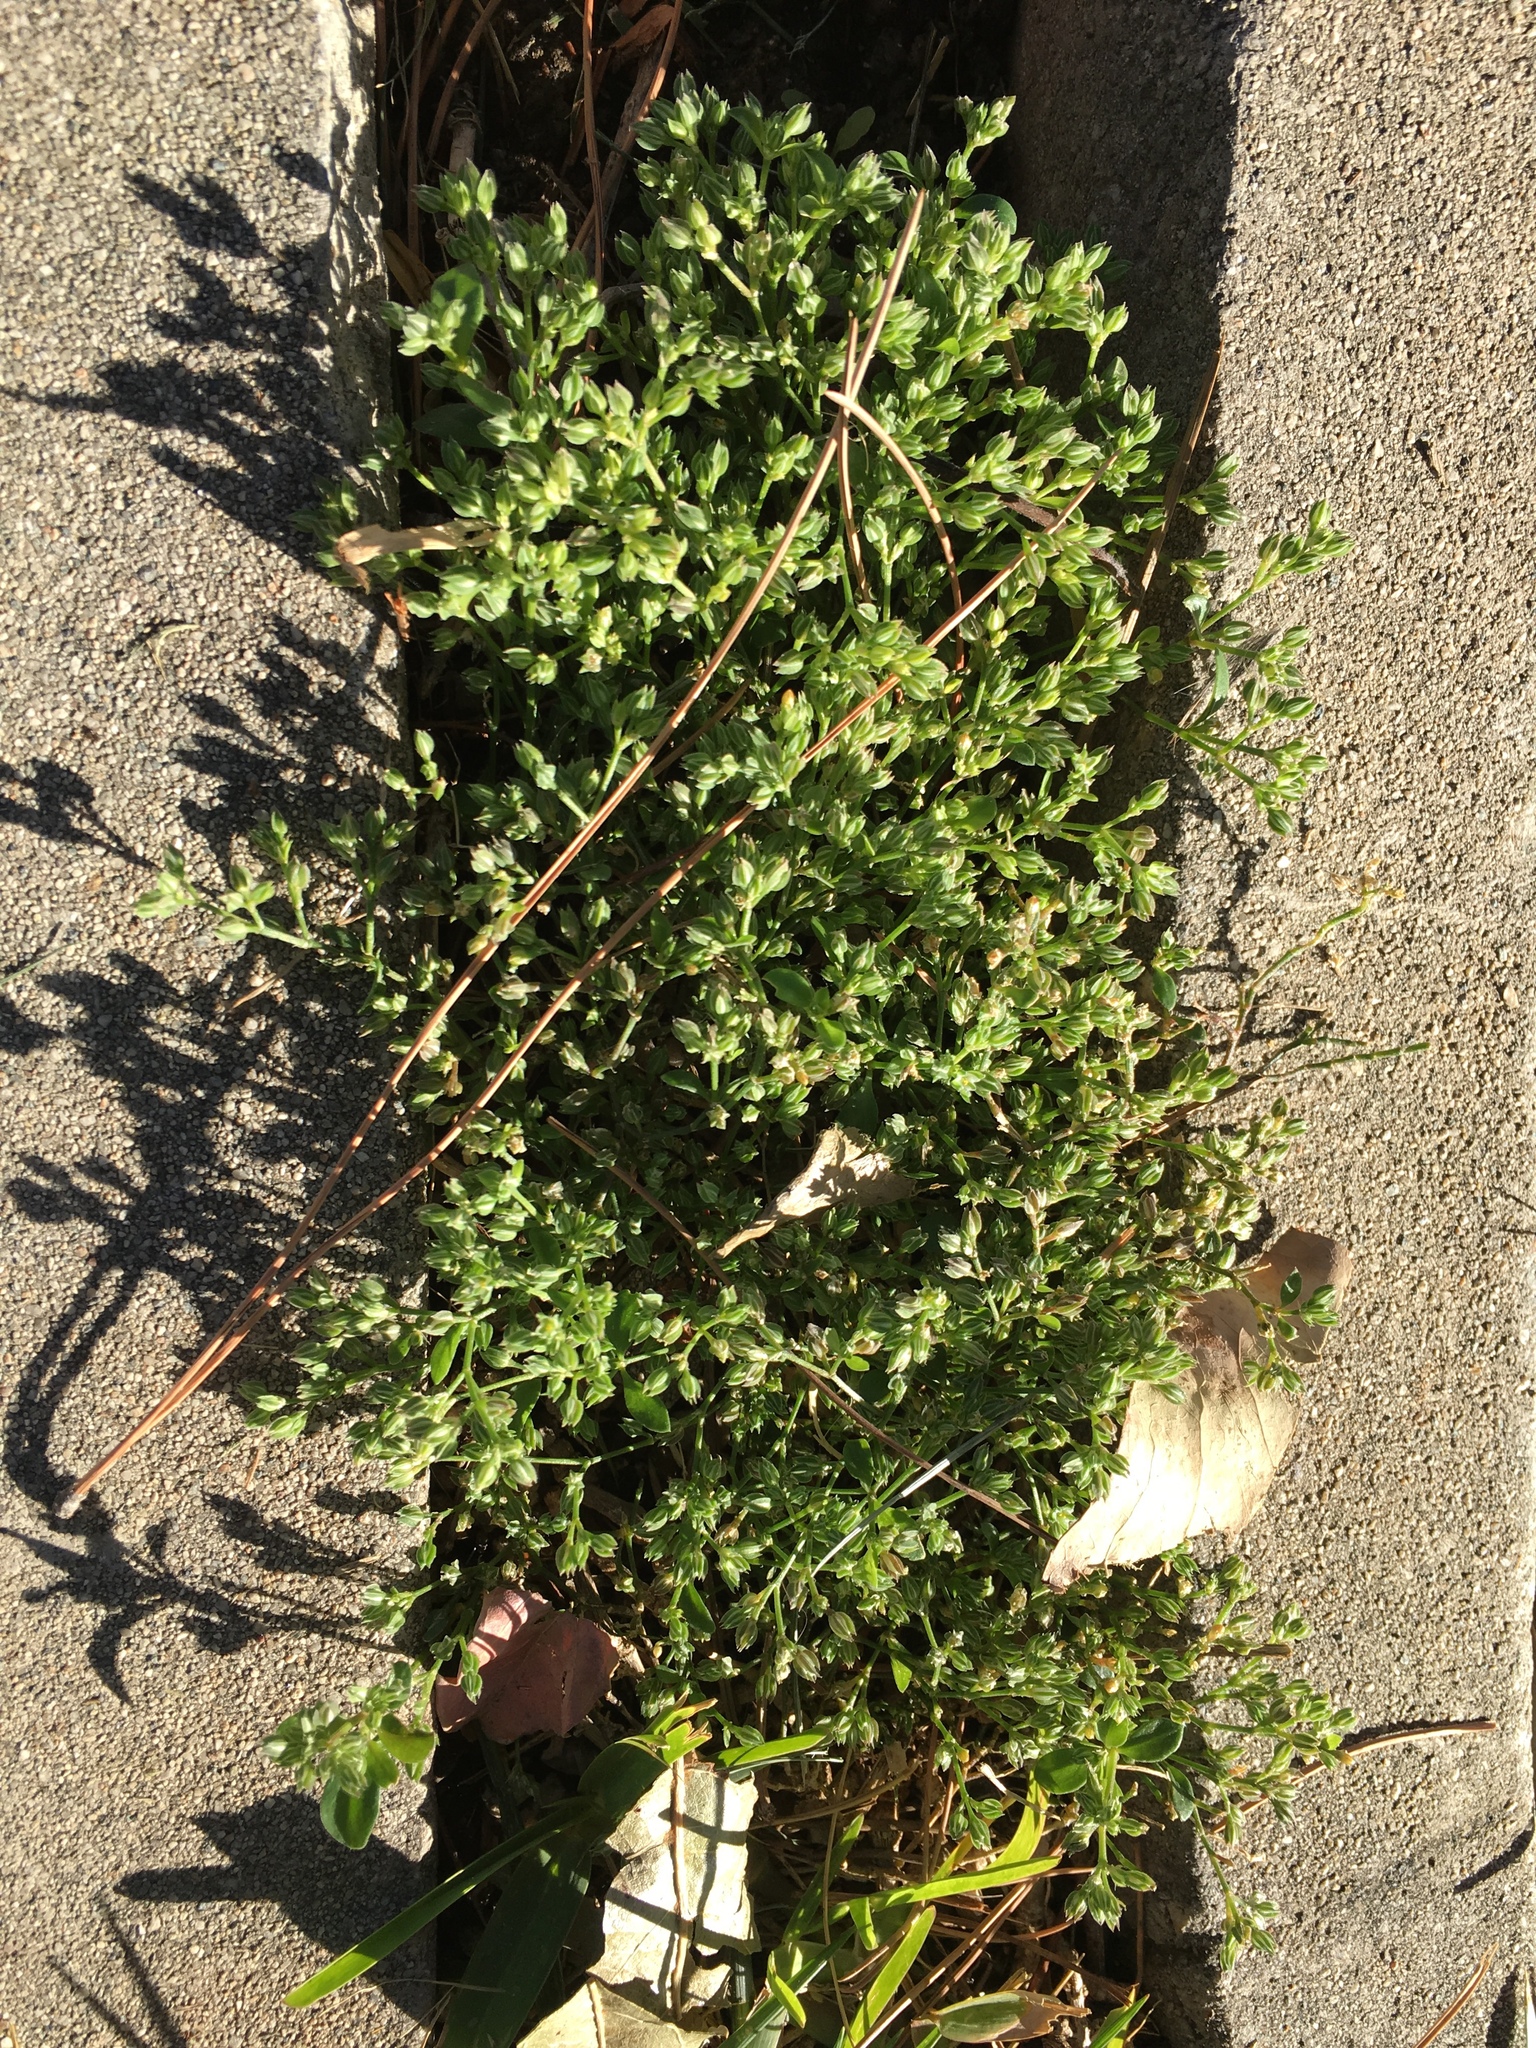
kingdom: Plantae
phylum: Tracheophyta
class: Magnoliopsida
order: Caryophyllales
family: Caryophyllaceae
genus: Polycarpon
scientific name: Polycarpon tetraphyllum
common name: Four-leaved all-seed
